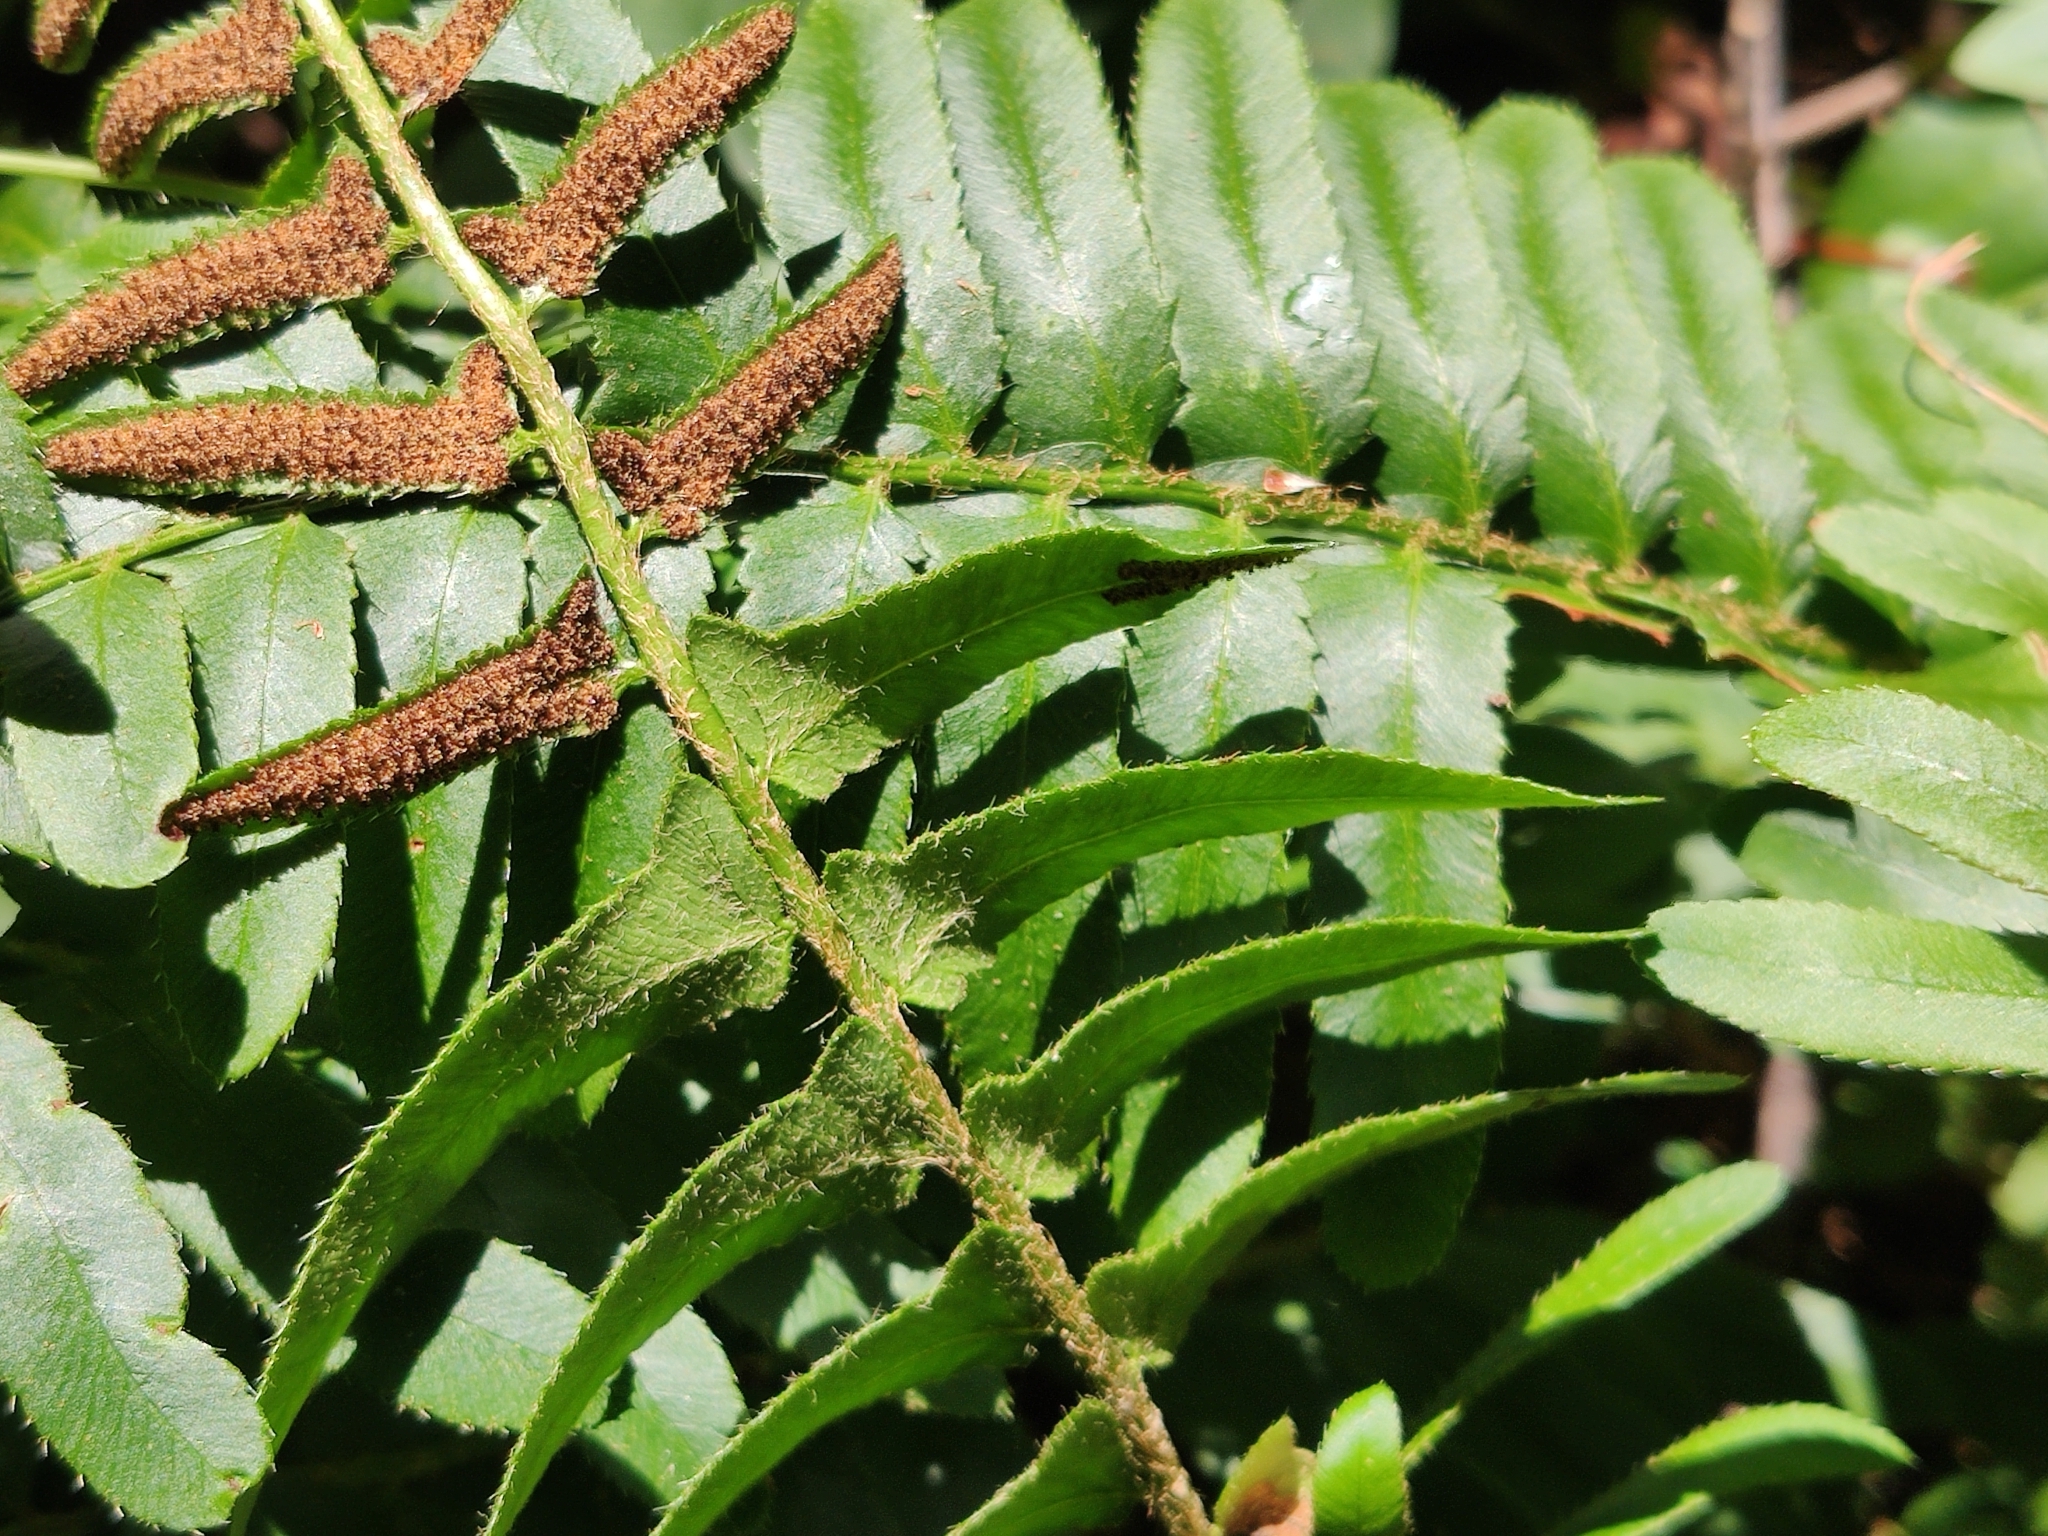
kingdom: Plantae
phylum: Tracheophyta
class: Polypodiopsida
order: Polypodiales
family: Dryopteridaceae
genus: Polystichum
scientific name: Polystichum acrostichoides
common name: Christmas fern
